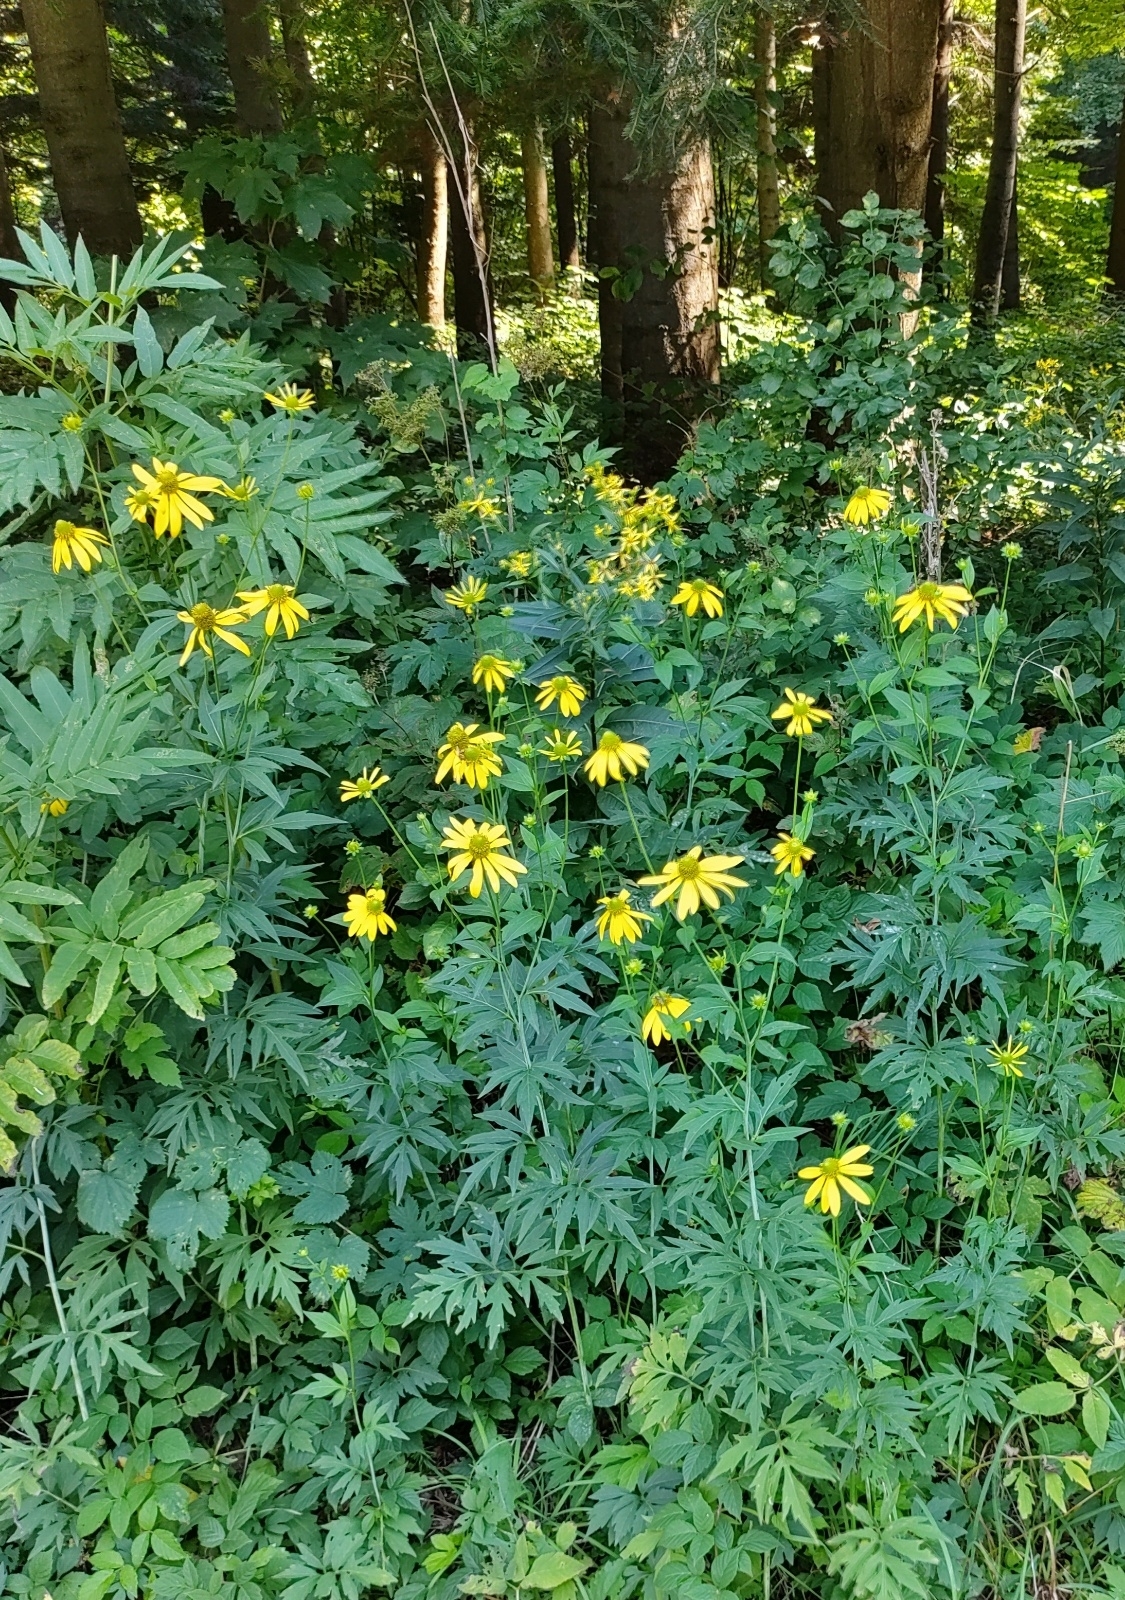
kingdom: Plantae
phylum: Tracheophyta
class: Magnoliopsida
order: Asterales
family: Asteraceae
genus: Rudbeckia
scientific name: Rudbeckia laciniata
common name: Coneflower
